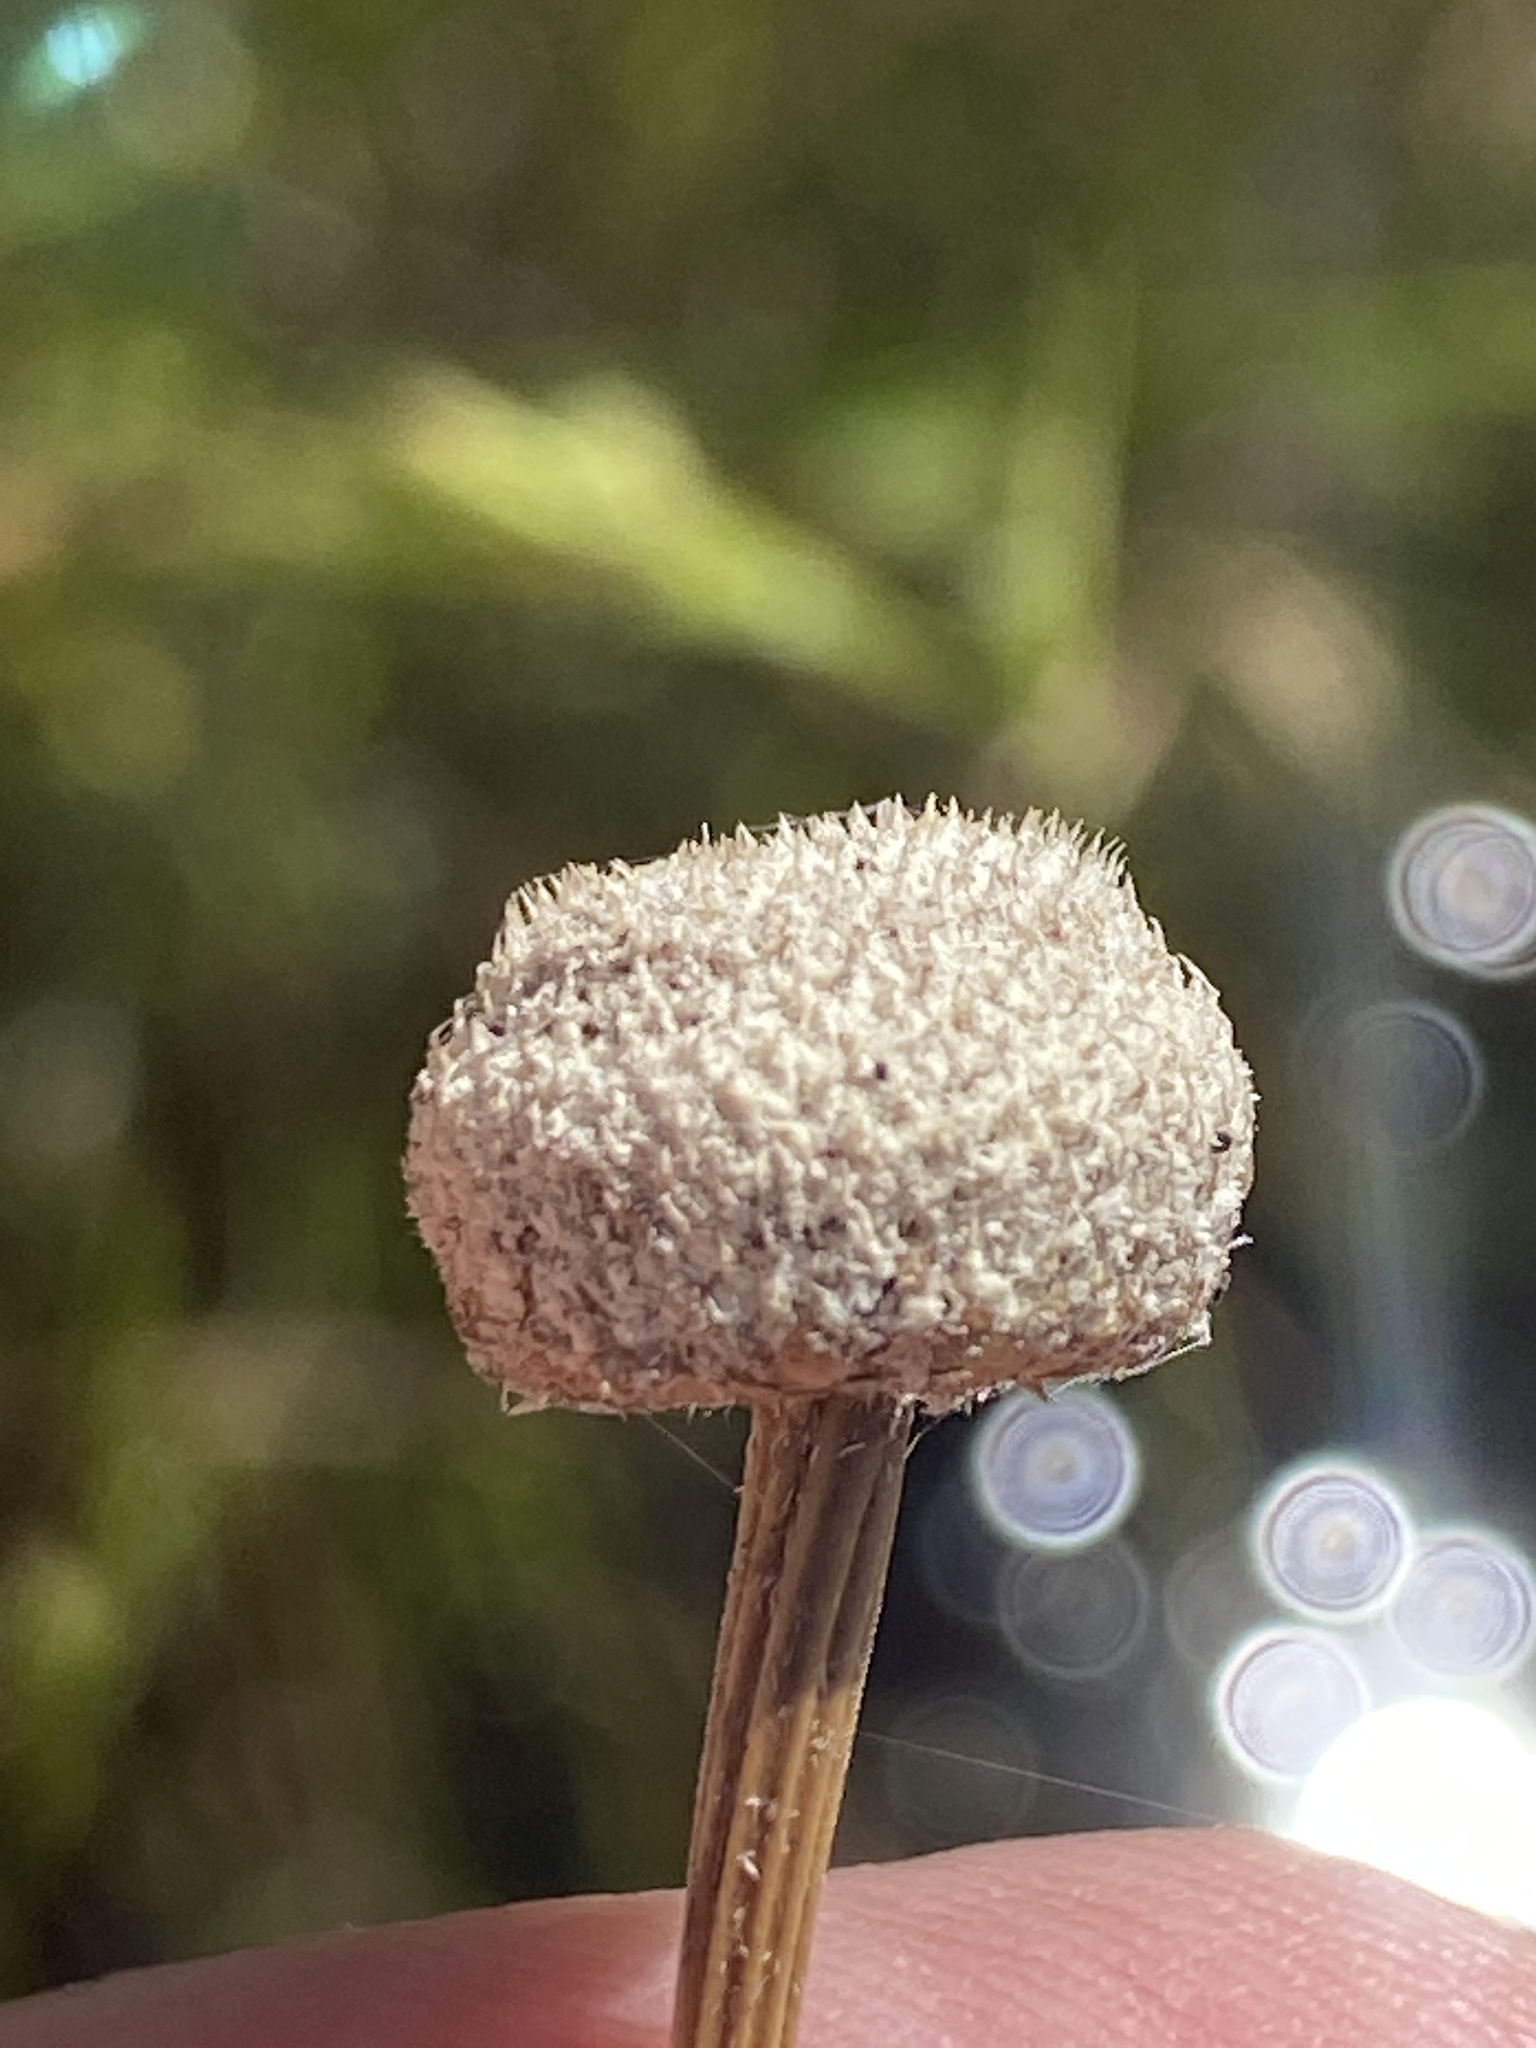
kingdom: Plantae
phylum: Tracheophyta
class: Liliopsida
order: Poales
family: Eriocaulaceae
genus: Eriocaulon
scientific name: Eriocaulon decangulare
